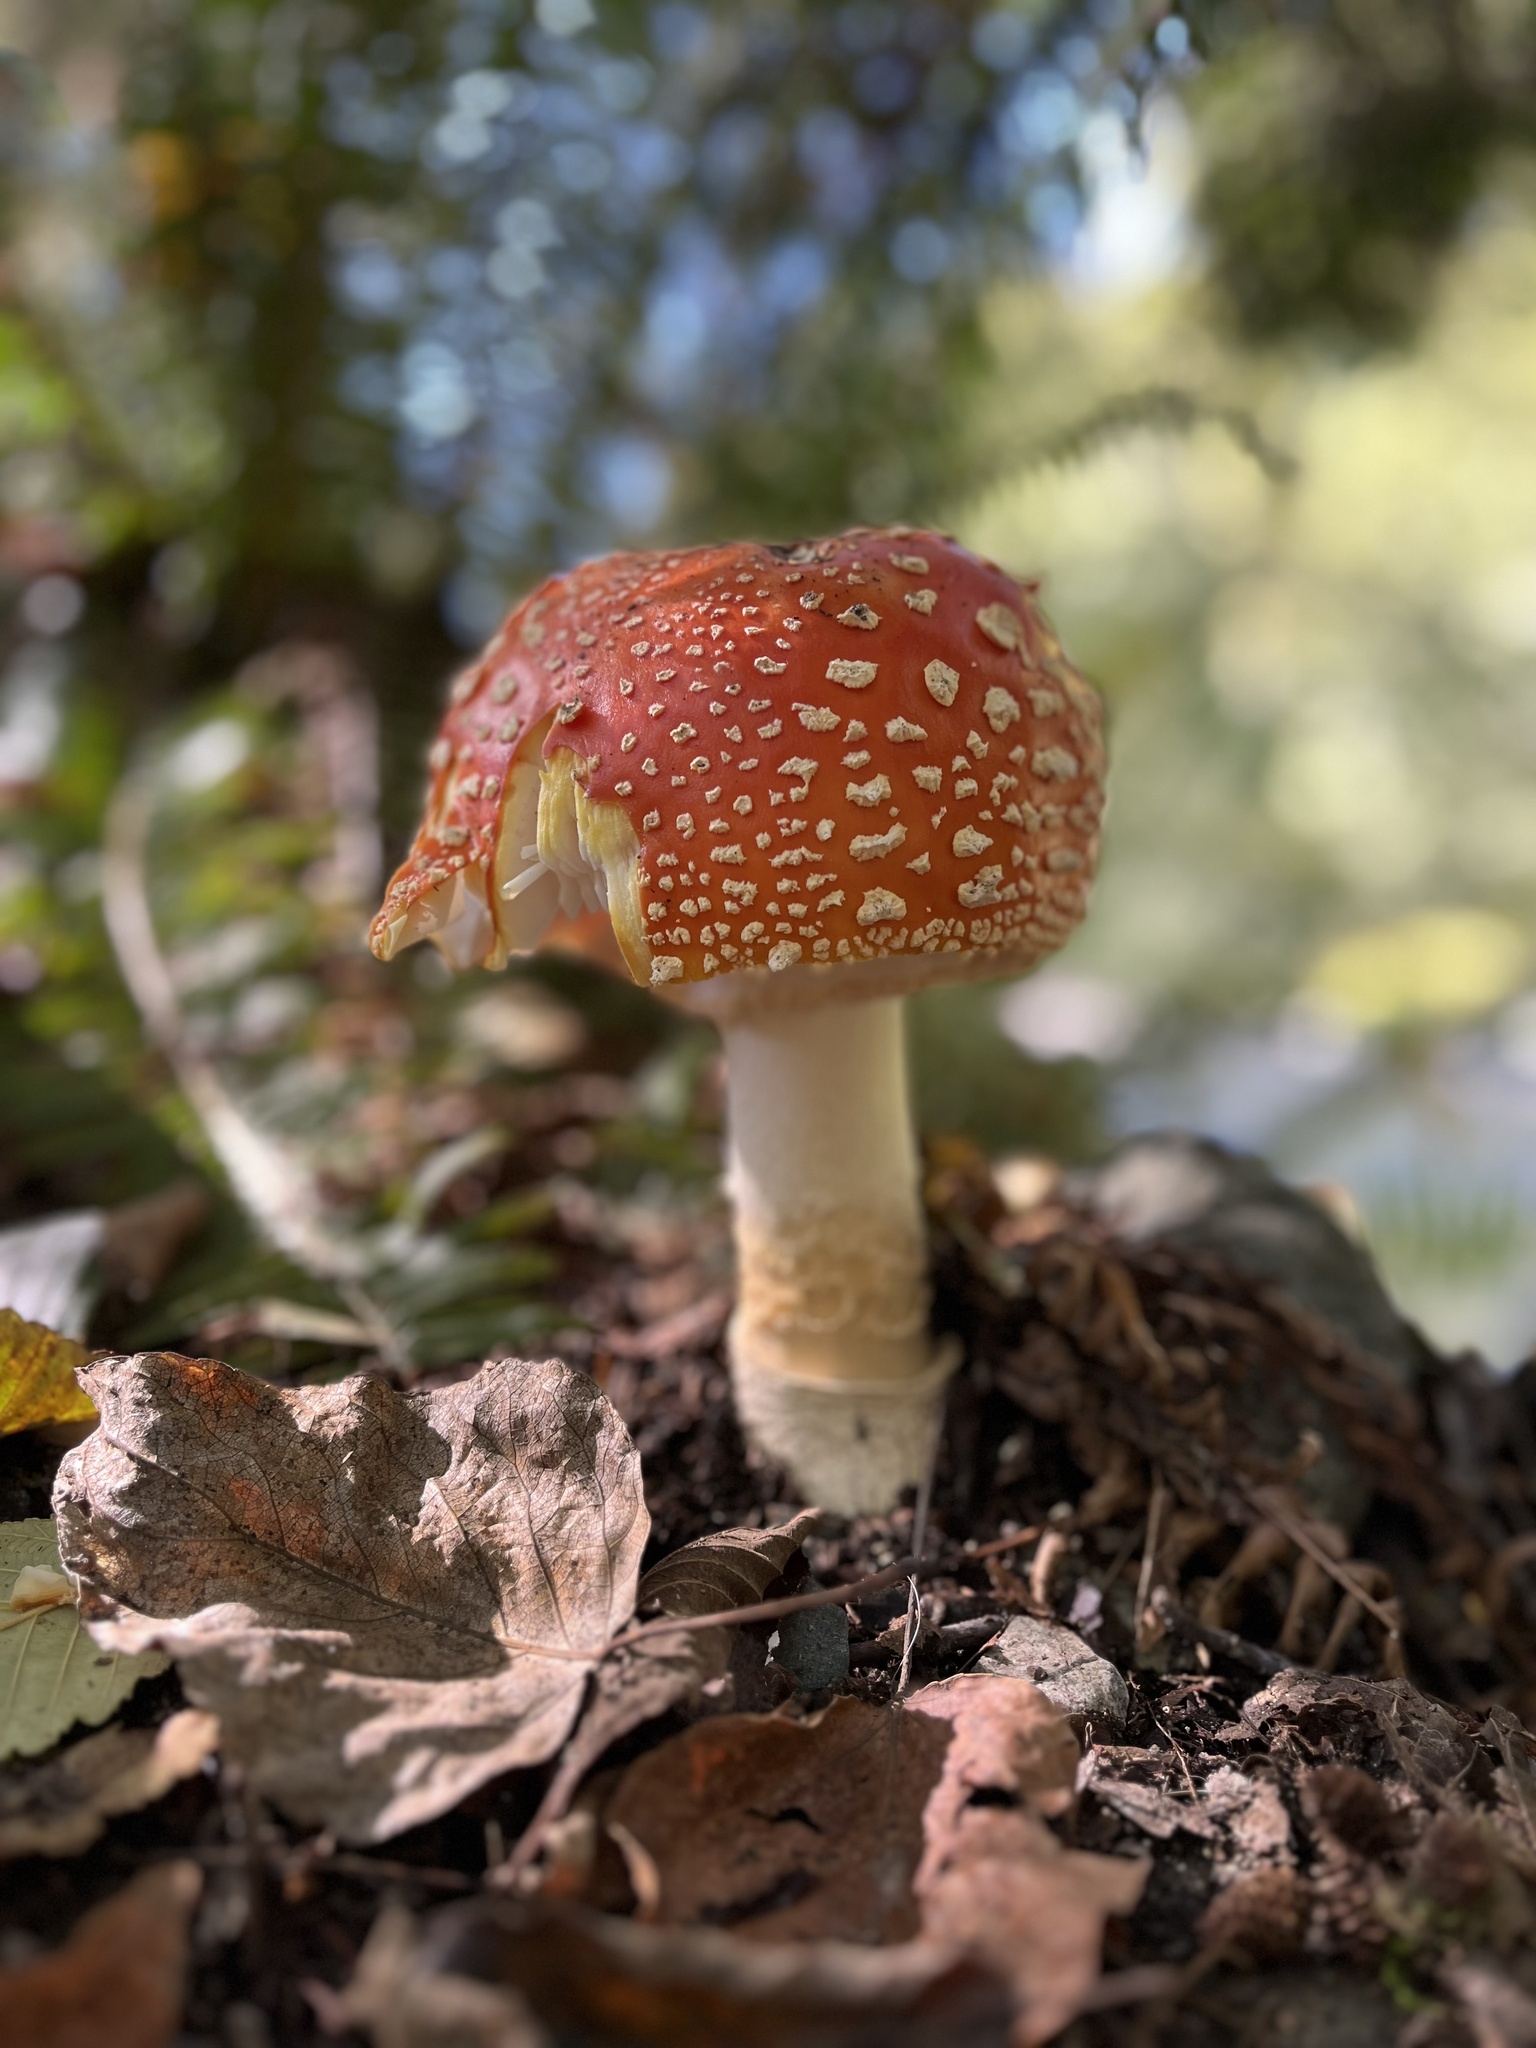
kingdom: Fungi
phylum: Basidiomycota
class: Agaricomycetes
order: Agaricales
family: Amanitaceae
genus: Amanita
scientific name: Amanita muscaria
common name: Fly agaric
